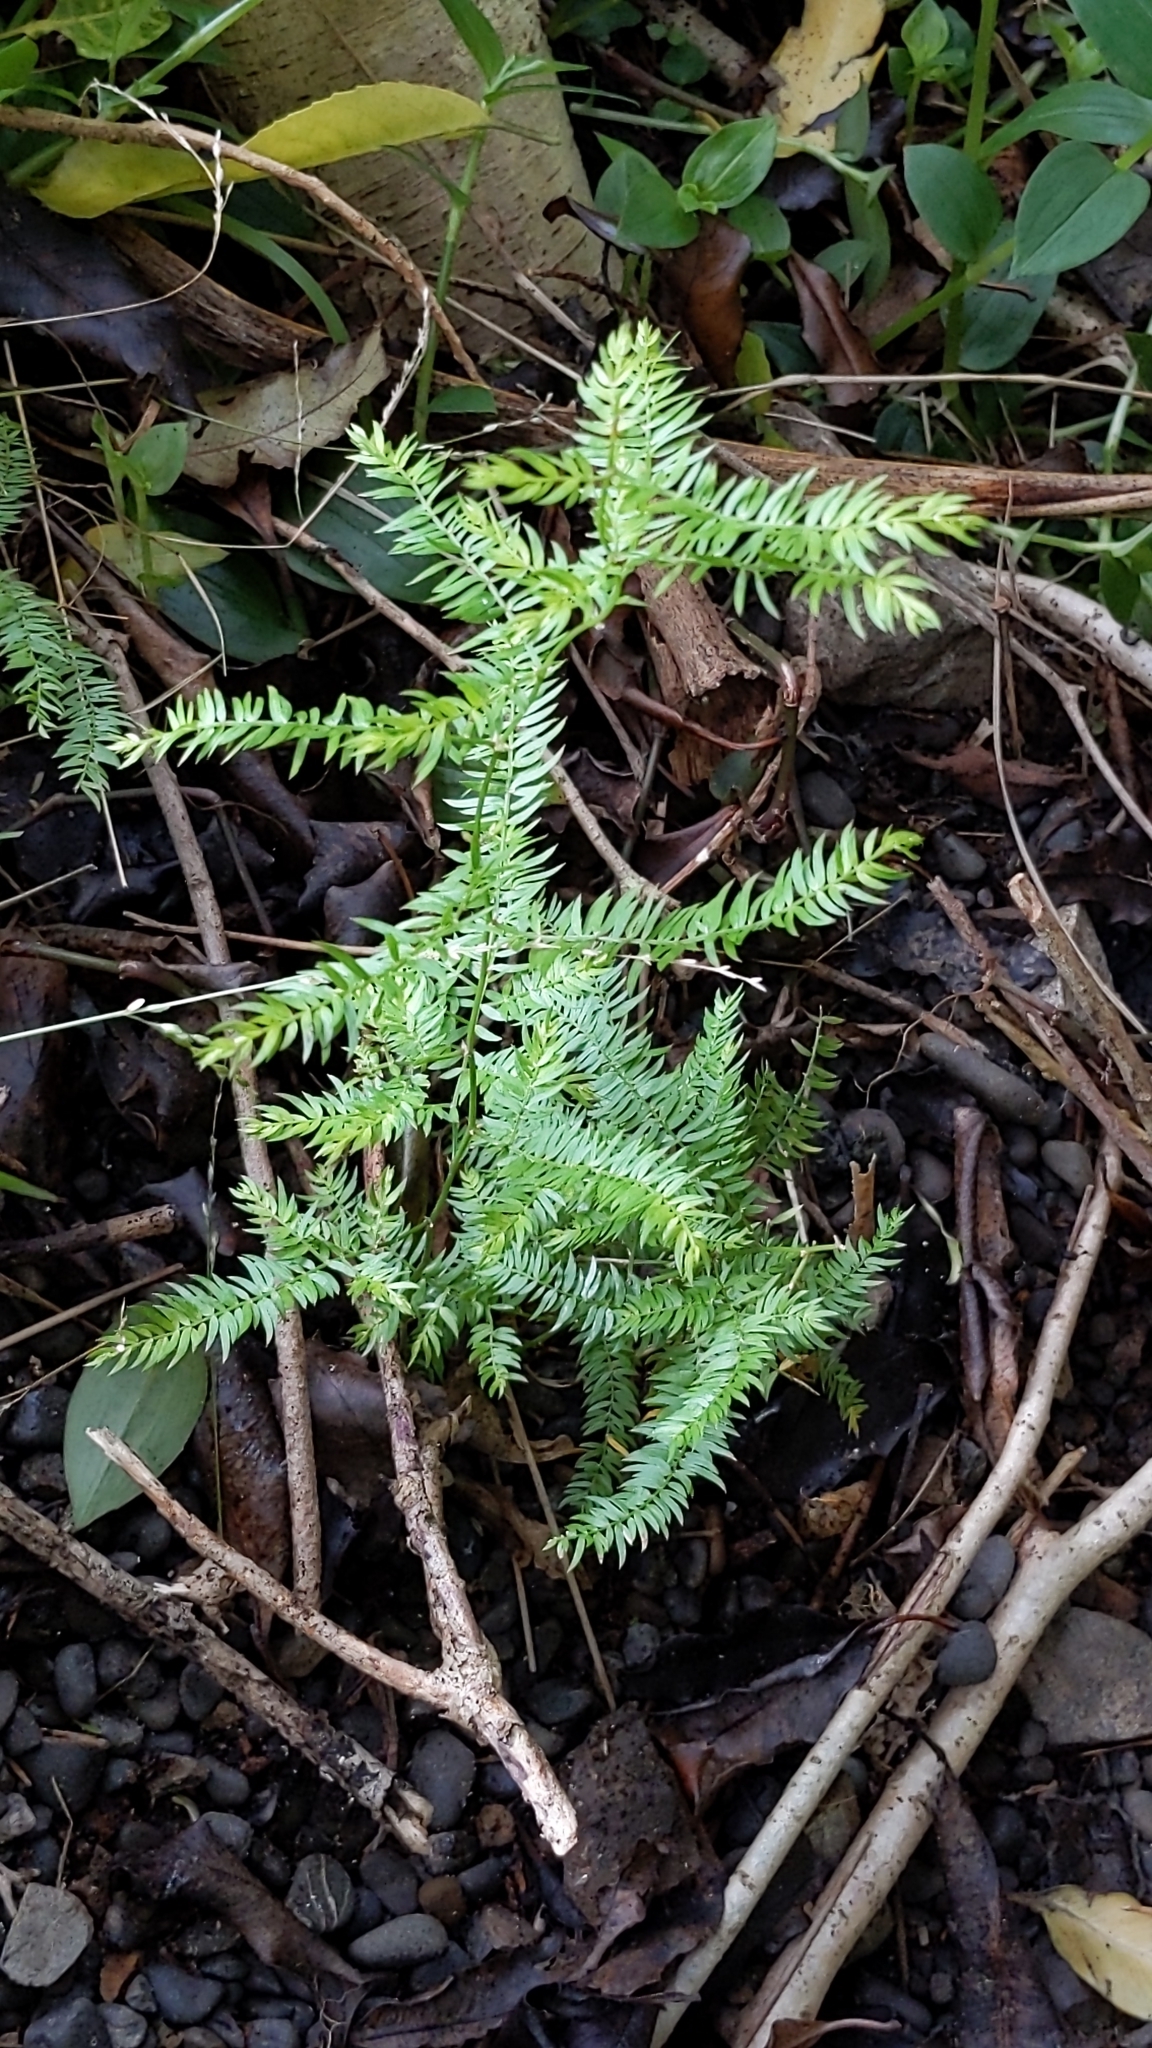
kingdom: Plantae
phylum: Tracheophyta
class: Liliopsida
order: Asparagales
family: Asparagaceae
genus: Asparagus
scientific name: Asparagus scandens
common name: Asparagus-fern
